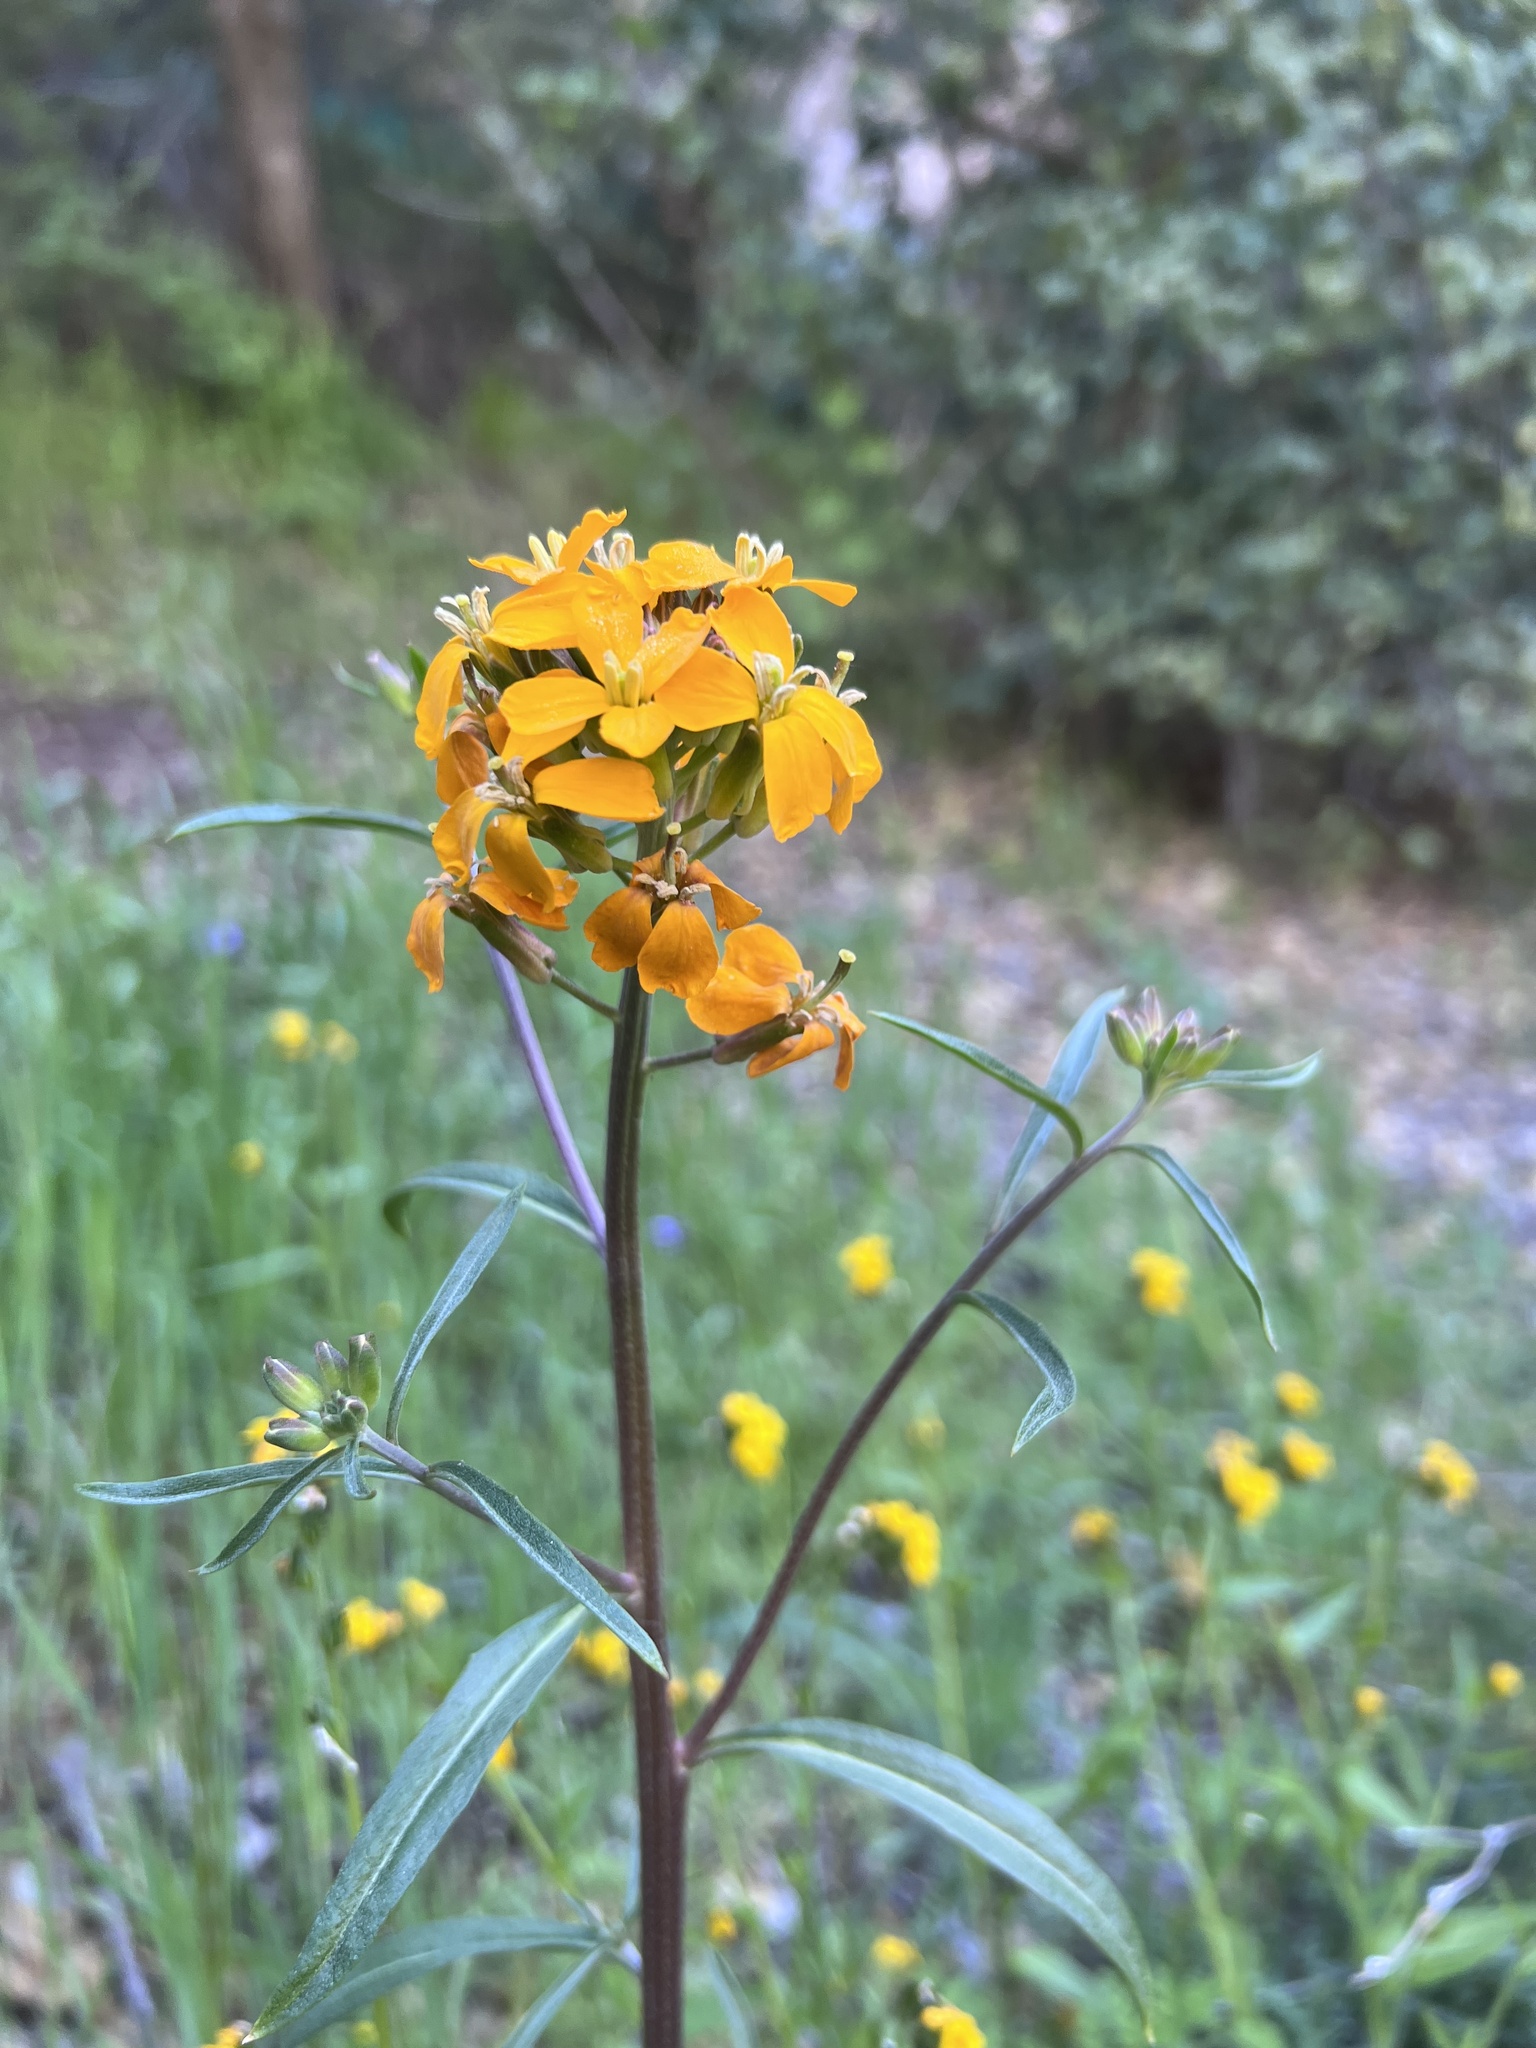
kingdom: Plantae
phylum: Tracheophyta
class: Magnoliopsida
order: Brassicales
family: Brassicaceae
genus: Erysimum
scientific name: Erysimum capitatum
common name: Western wallflower
